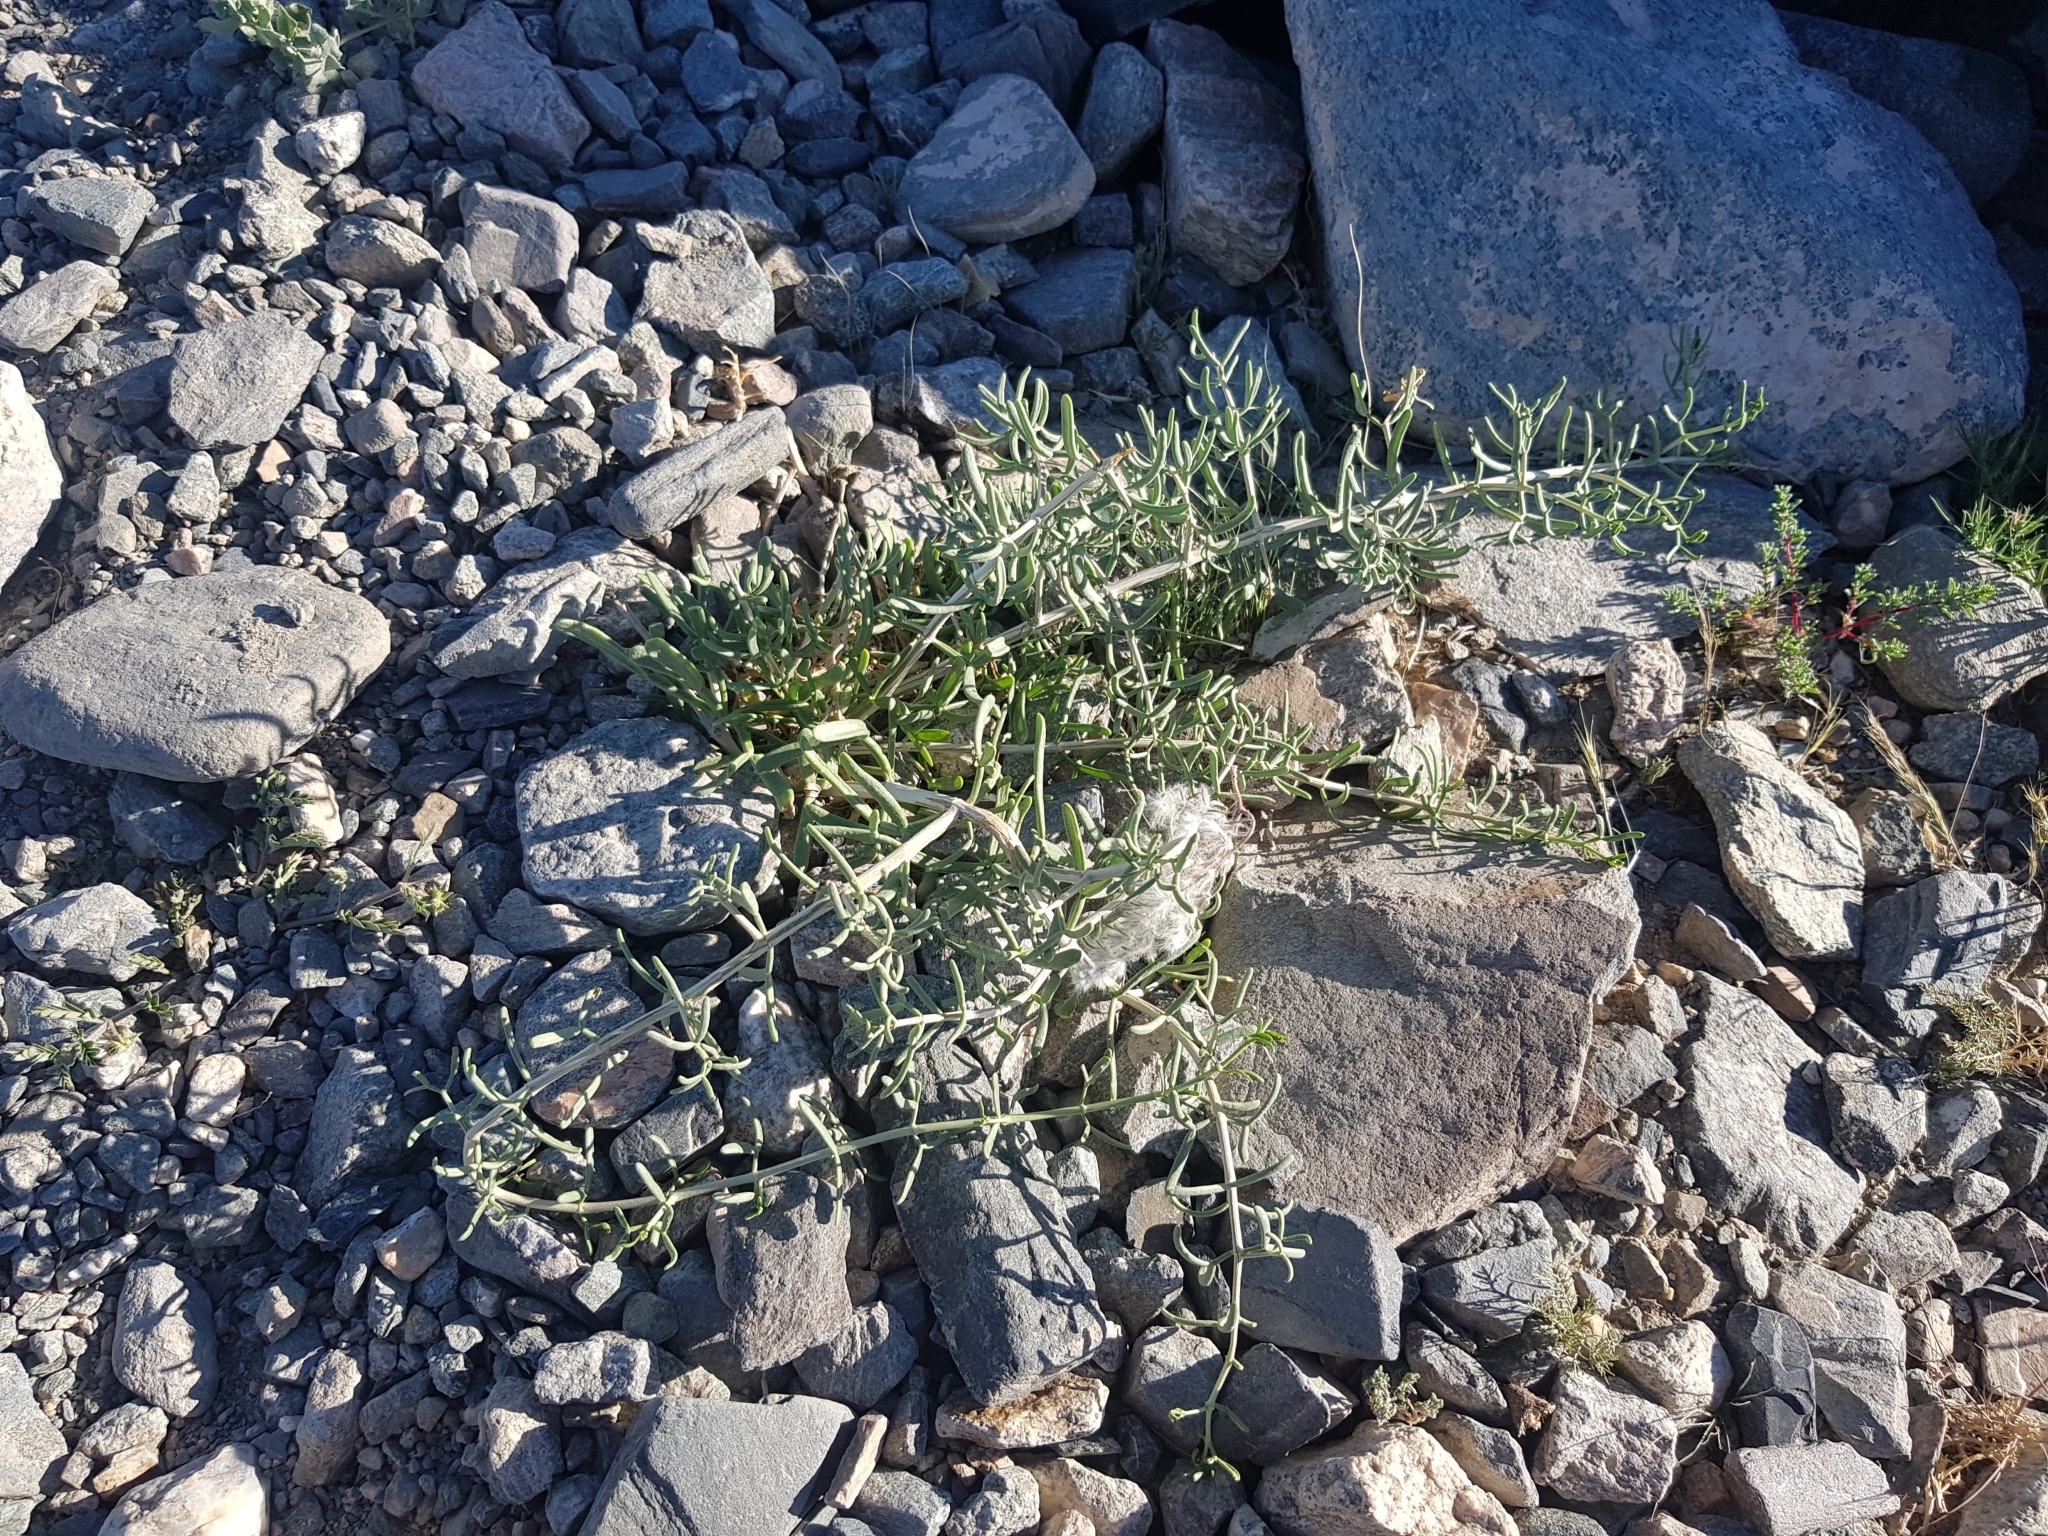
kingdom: Plantae
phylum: Tracheophyta
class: Magnoliopsida
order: Zygophyllales
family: Zygophyllaceae
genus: Zygophyllum
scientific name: Zygophyllum xanthoxylum
